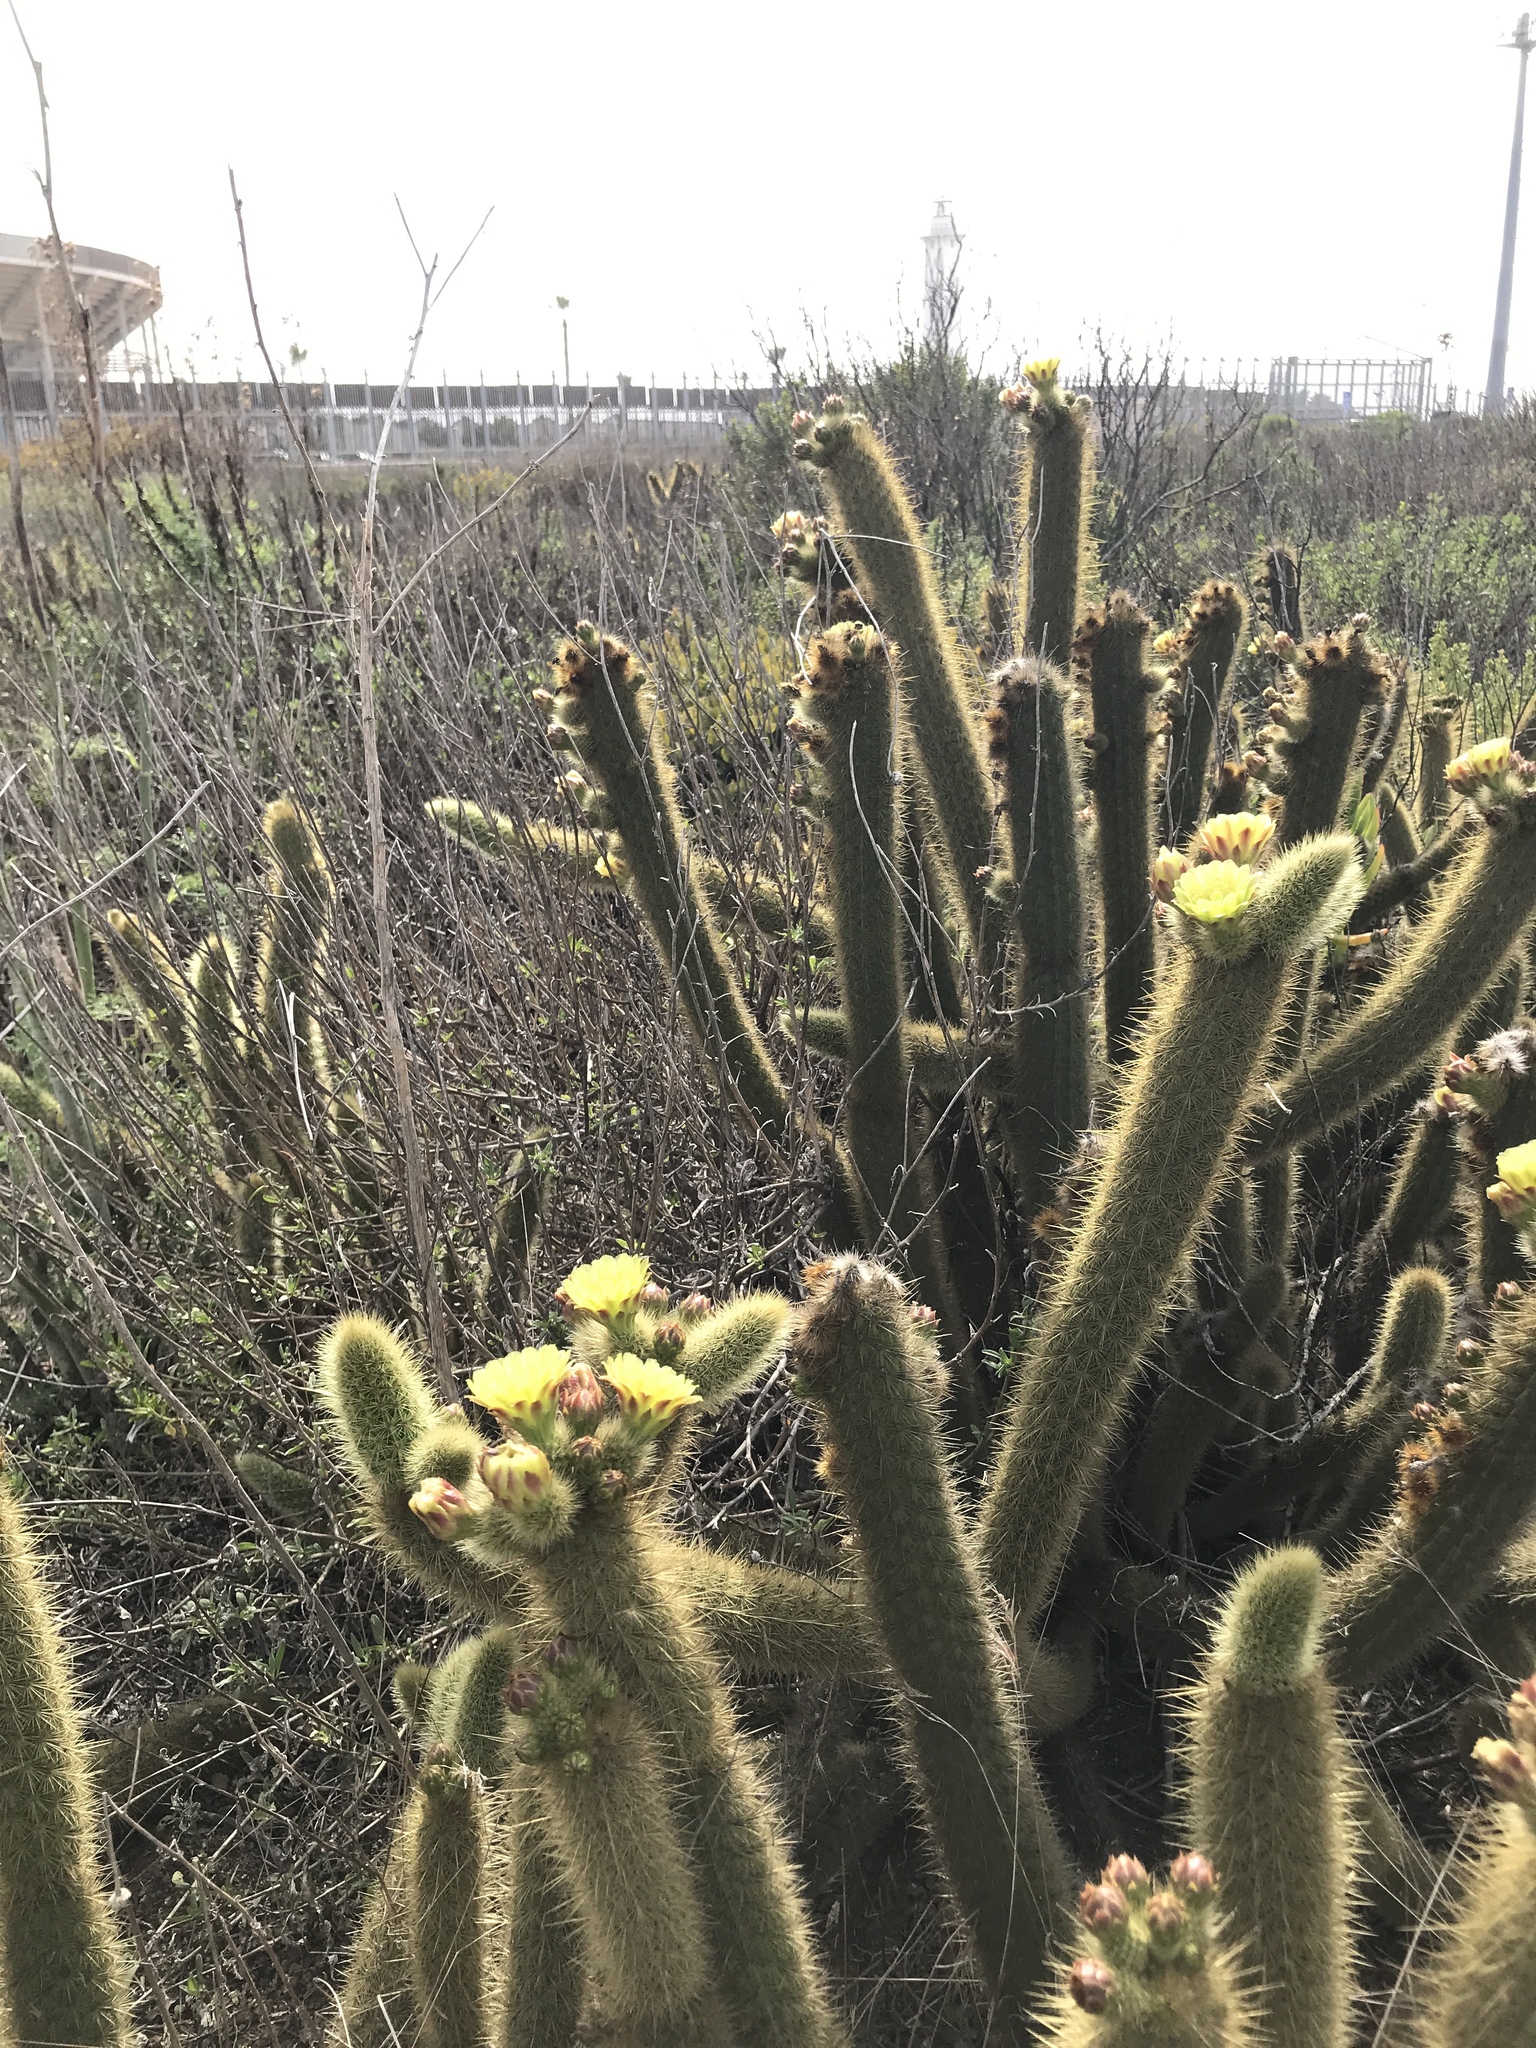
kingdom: Plantae
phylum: Tracheophyta
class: Magnoliopsida
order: Caryophyllales
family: Cactaceae
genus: Bergerocactus
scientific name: Bergerocactus emoryi
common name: Golden snakecactus
